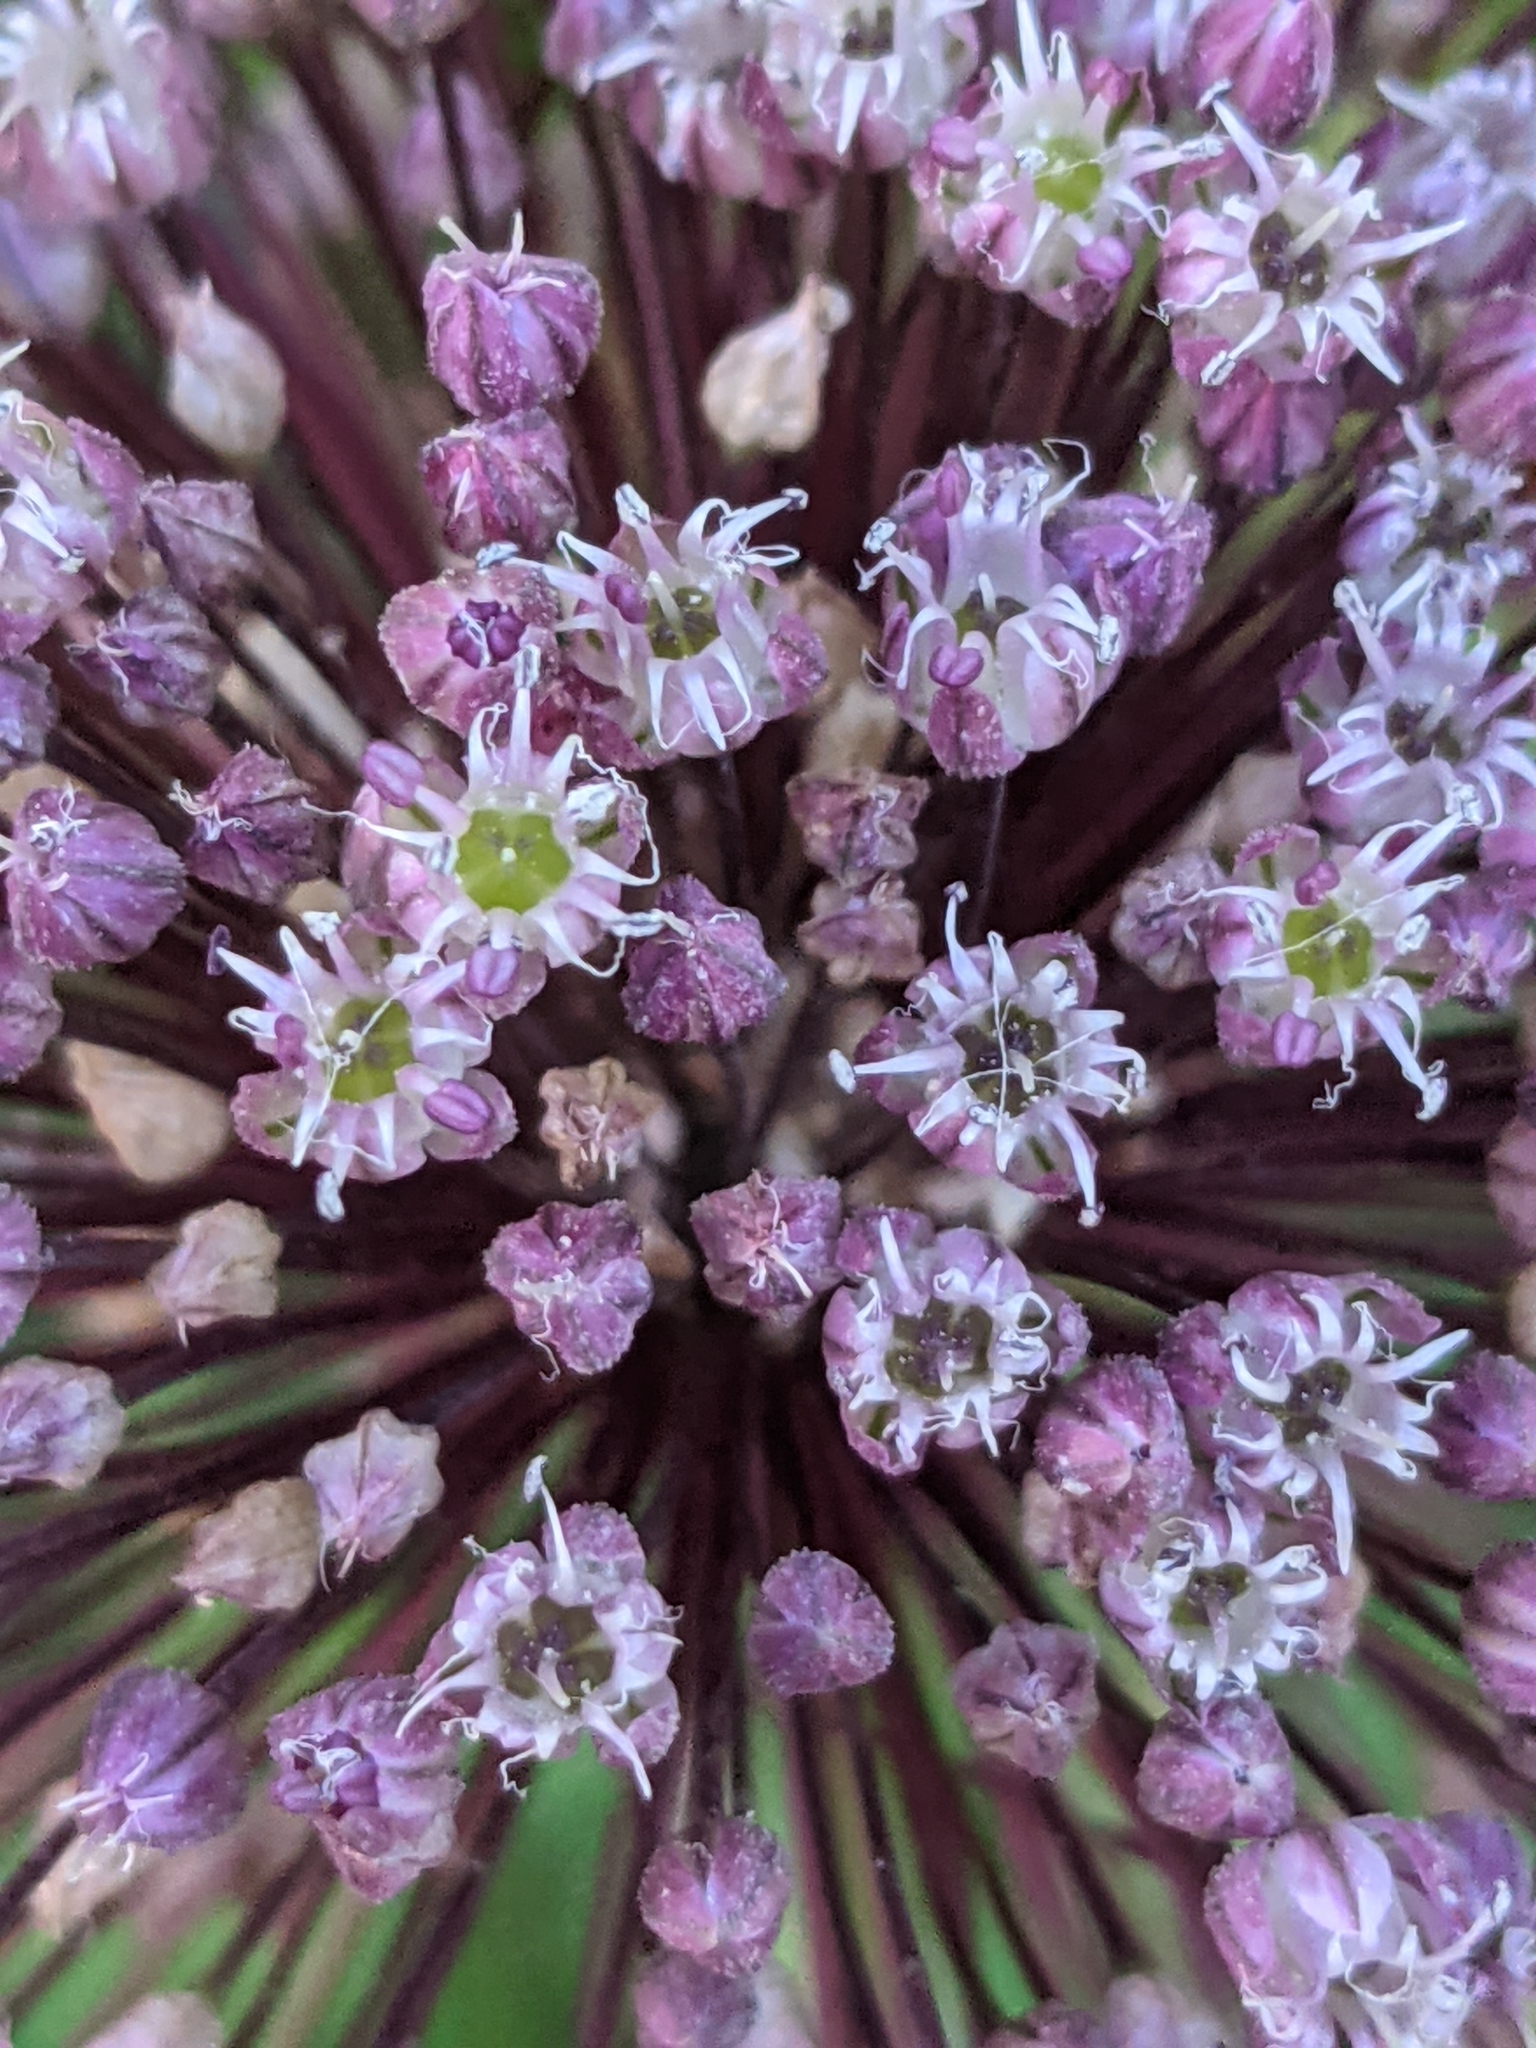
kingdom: Plantae
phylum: Tracheophyta
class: Liliopsida
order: Asparagales
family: Amaryllidaceae
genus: Allium
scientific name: Allium ampeloprasum
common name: Wild leek
